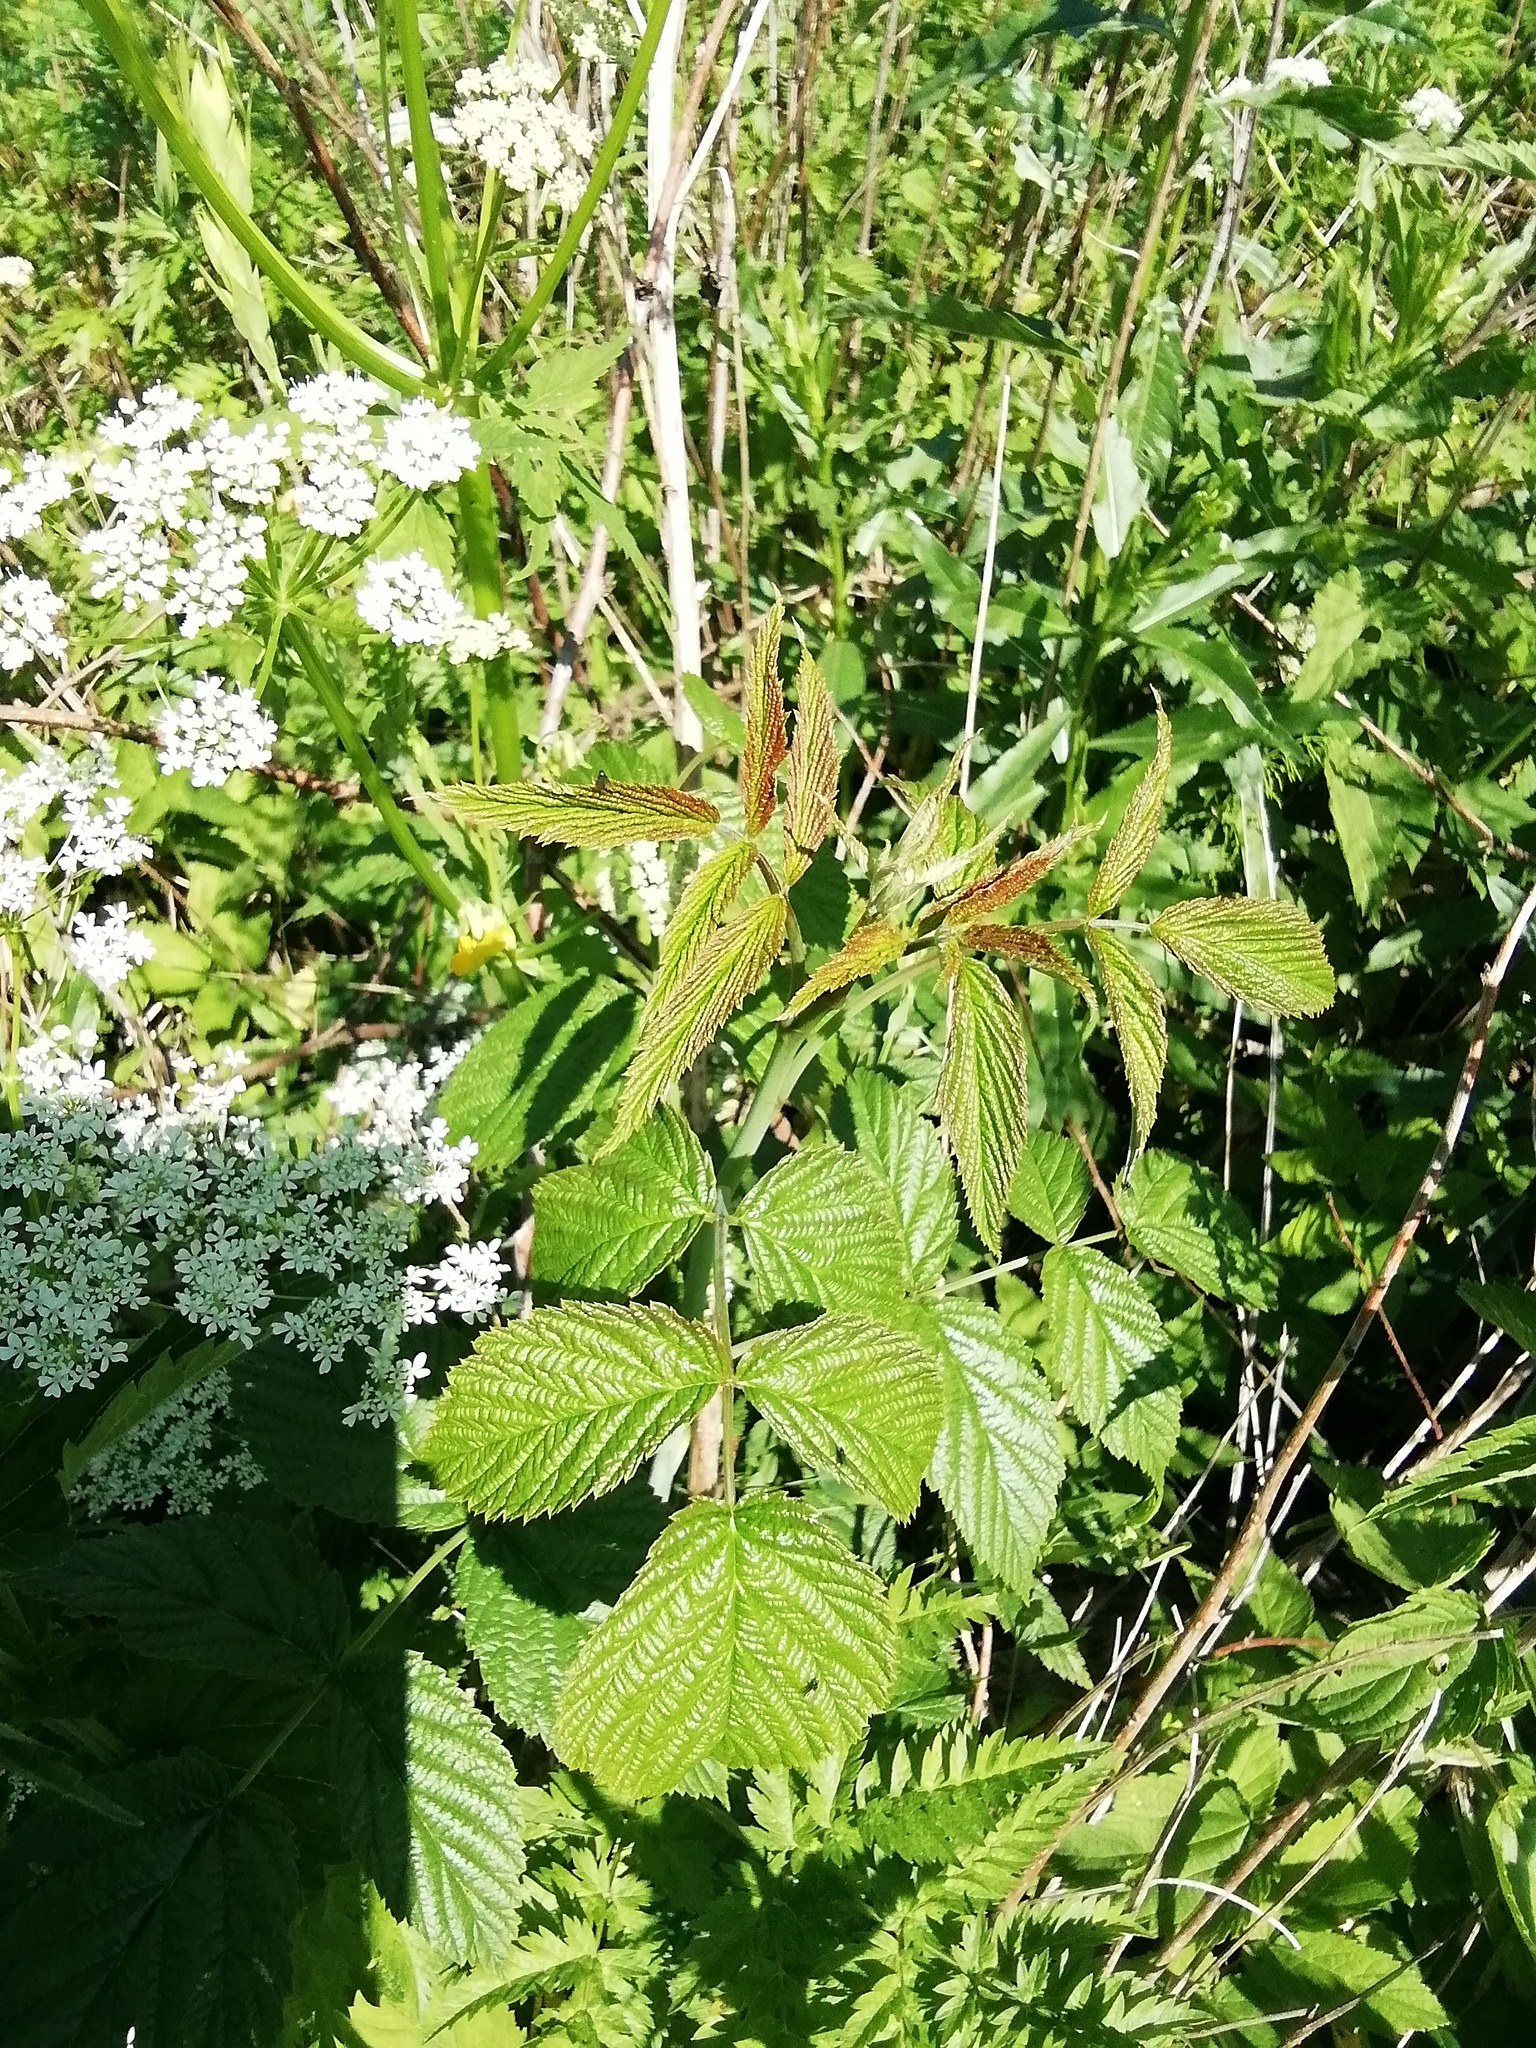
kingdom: Plantae
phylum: Tracheophyta
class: Magnoliopsida
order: Rosales
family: Rosaceae
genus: Rubus
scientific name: Rubus idaeus
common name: Raspberry
